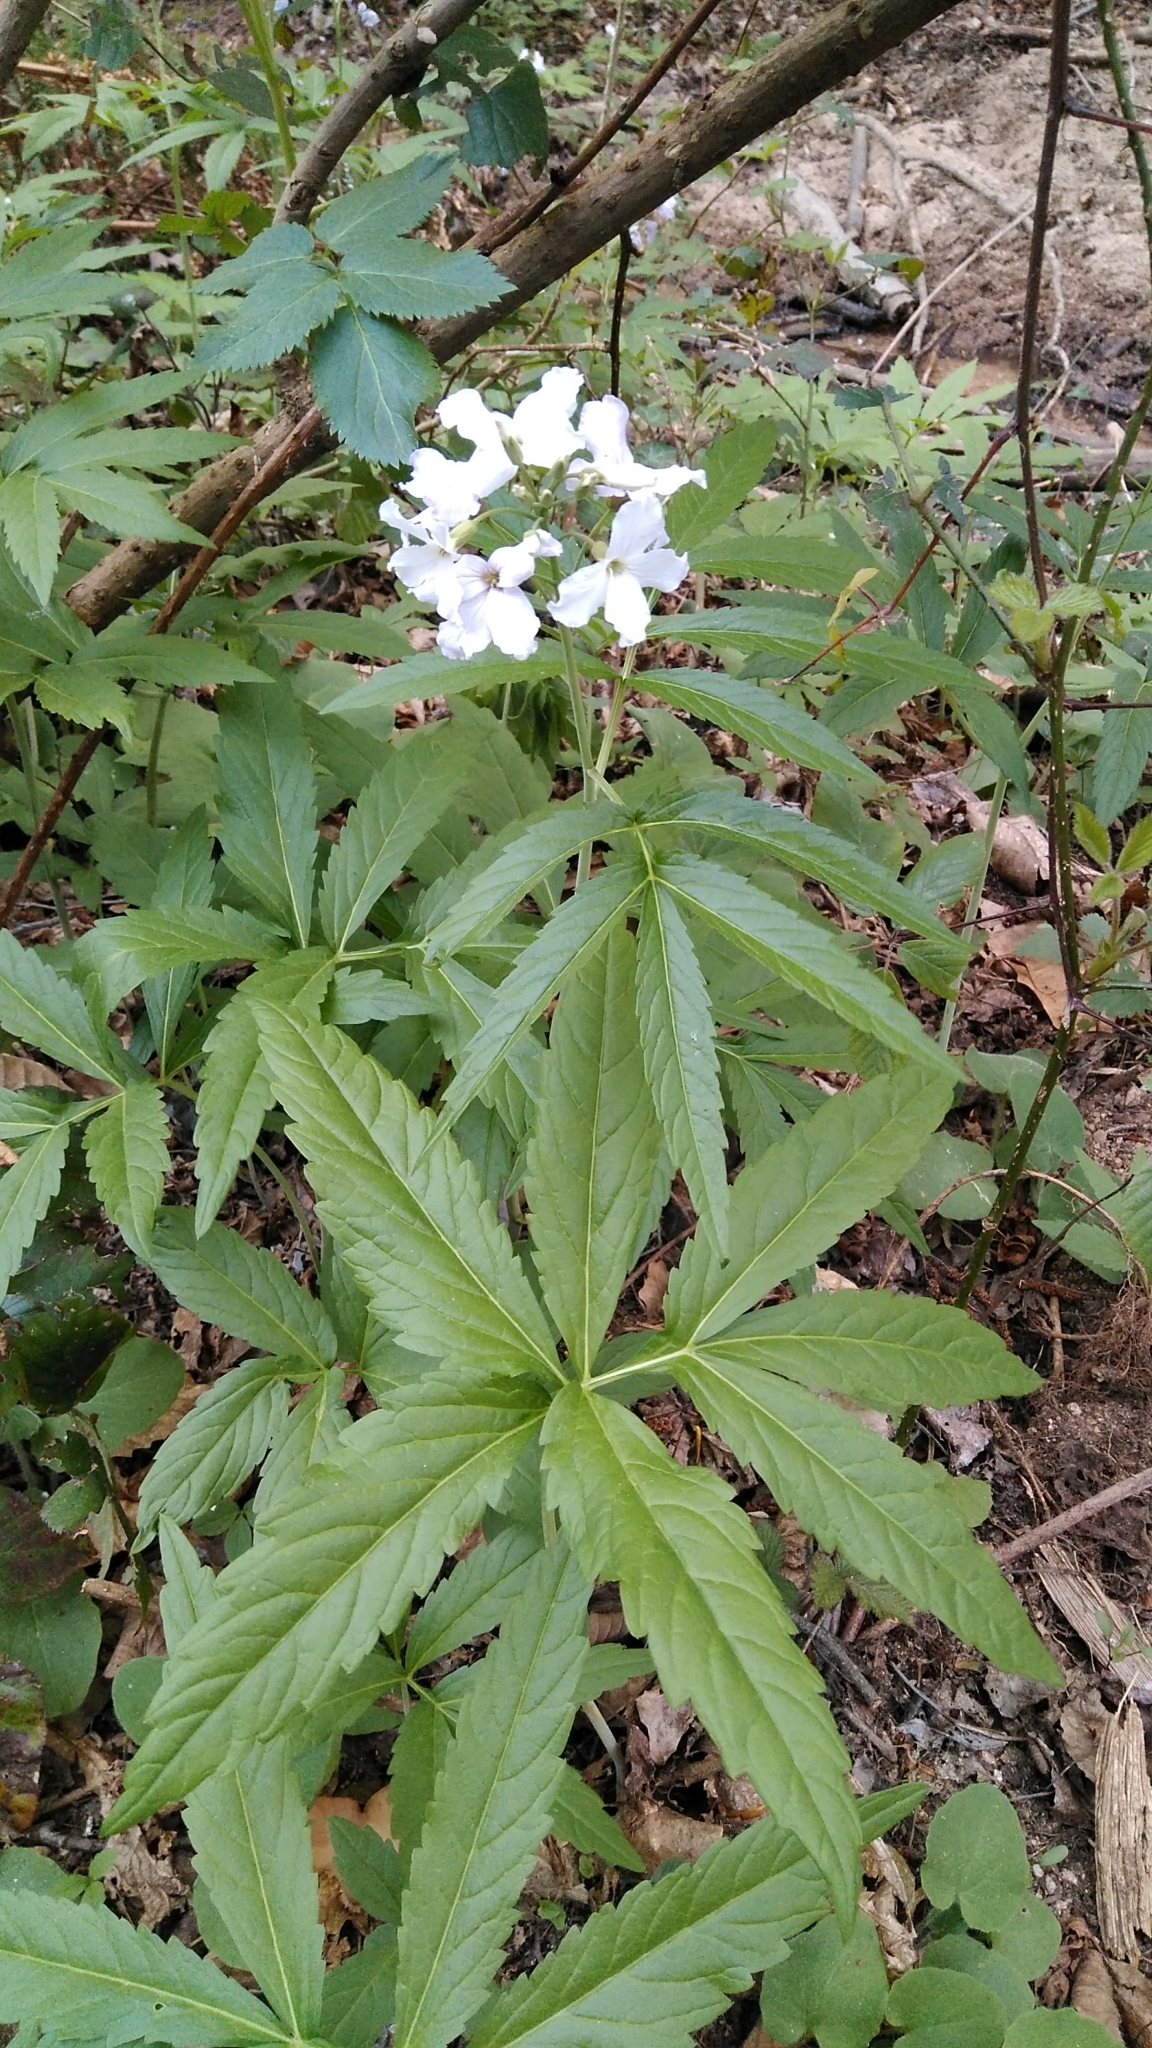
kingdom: Plantae
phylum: Tracheophyta
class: Magnoliopsida
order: Brassicales
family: Brassicaceae
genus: Cardamine
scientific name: Cardamine heptaphylla
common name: Pinnate coralroot
